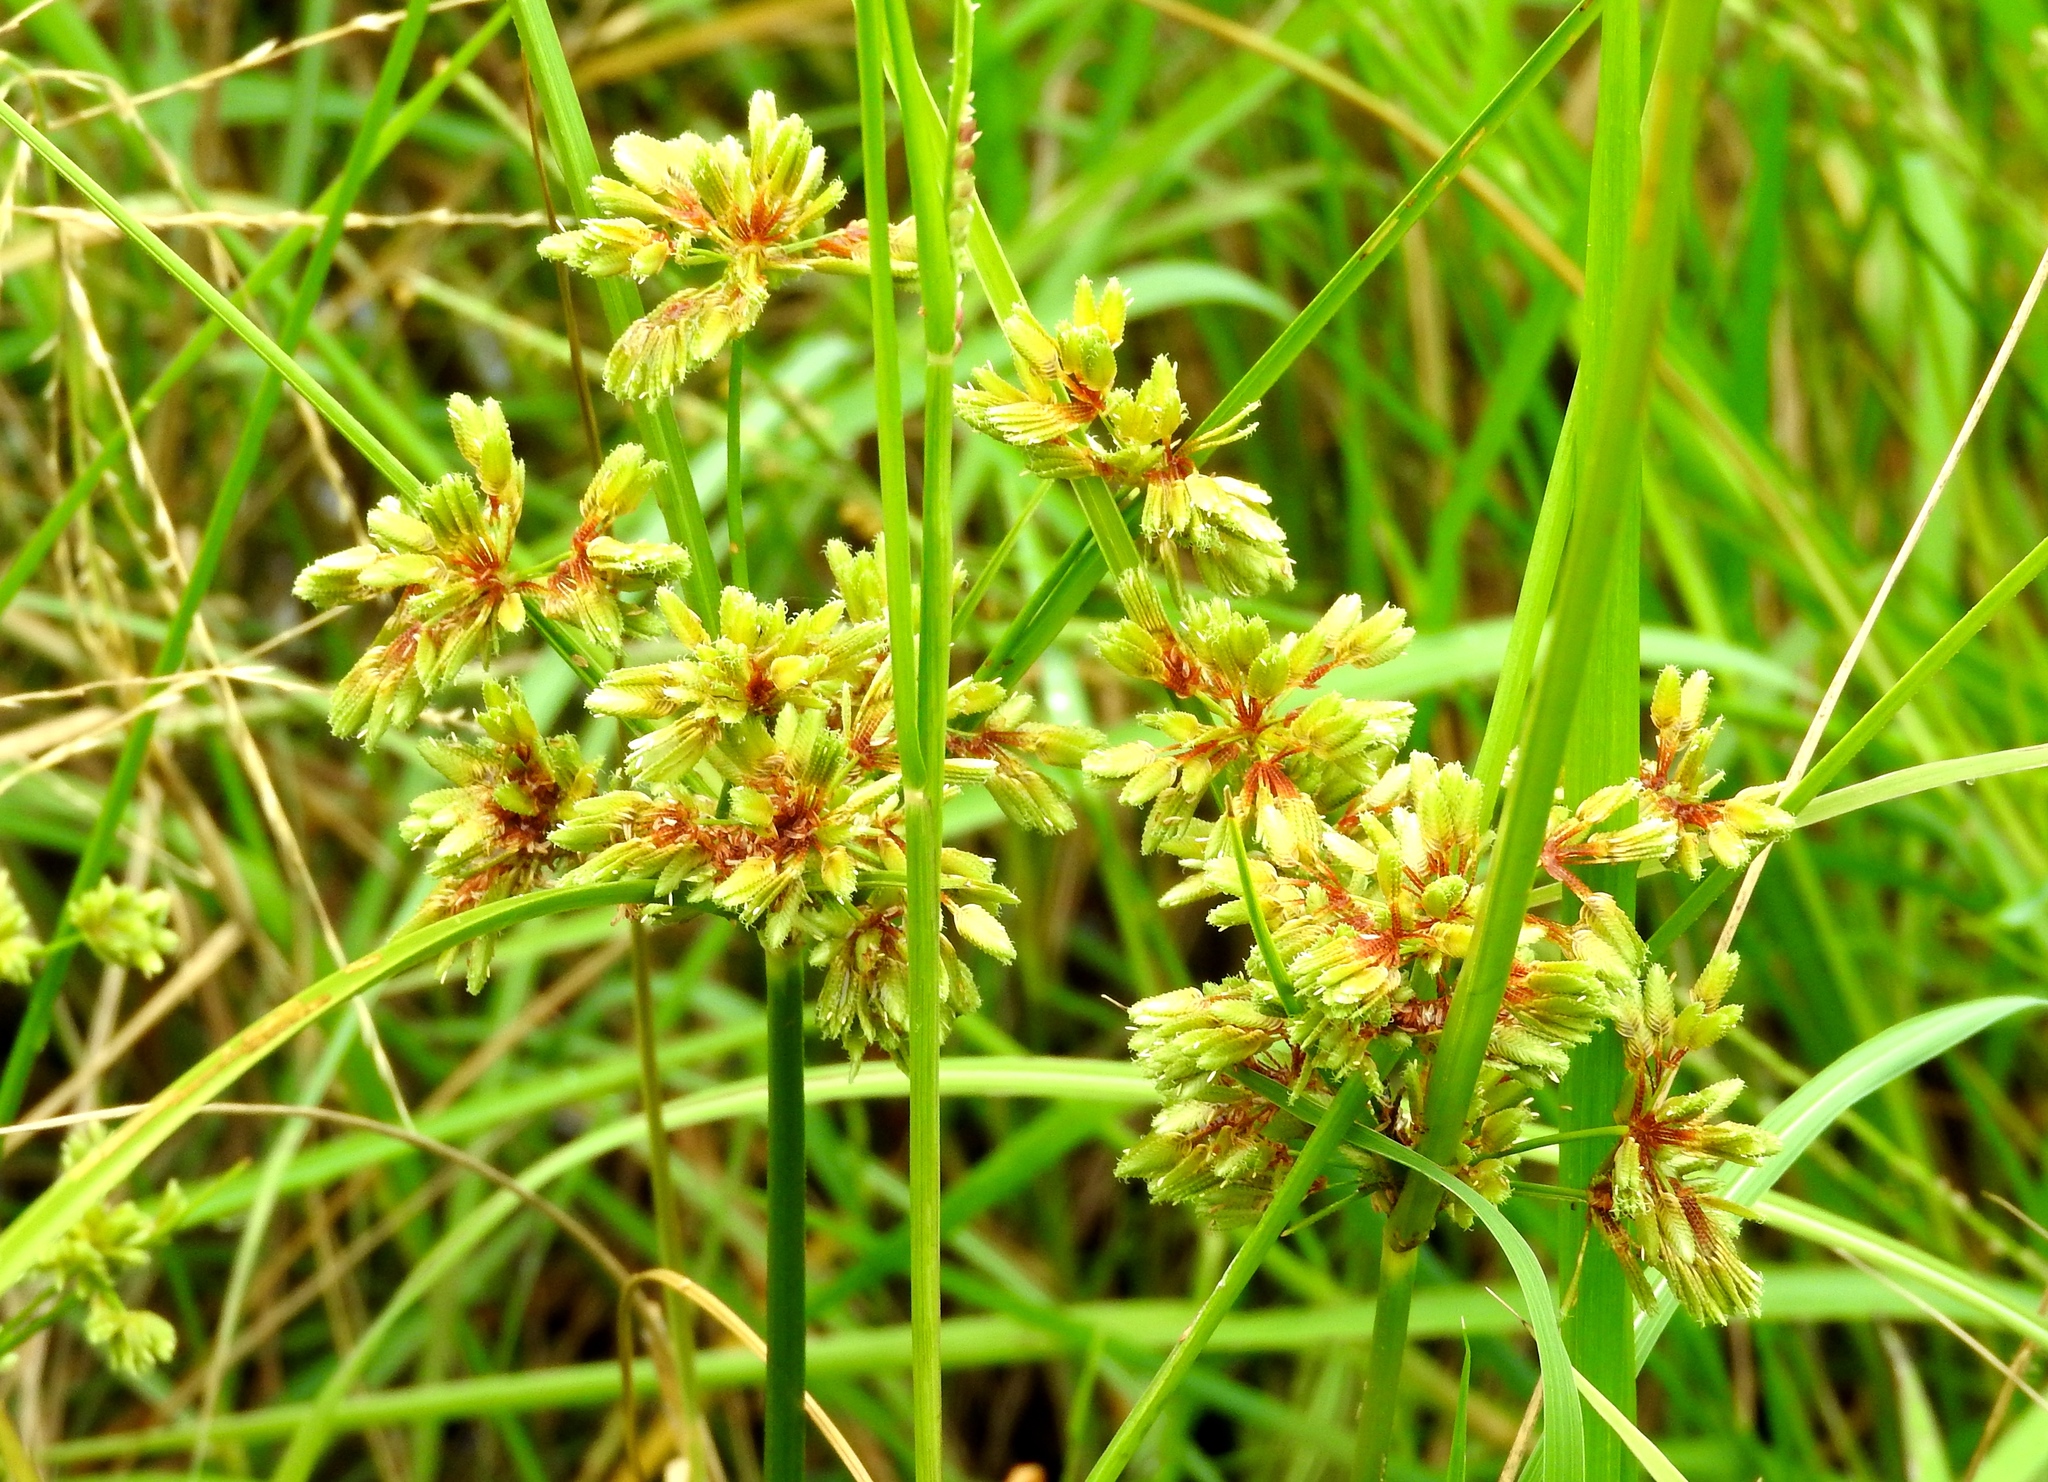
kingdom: Plantae
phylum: Tracheophyta
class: Liliopsida
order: Poales
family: Cyperaceae
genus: Cyperus
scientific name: Cyperus surinamensis
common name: Tropical flat sedge
